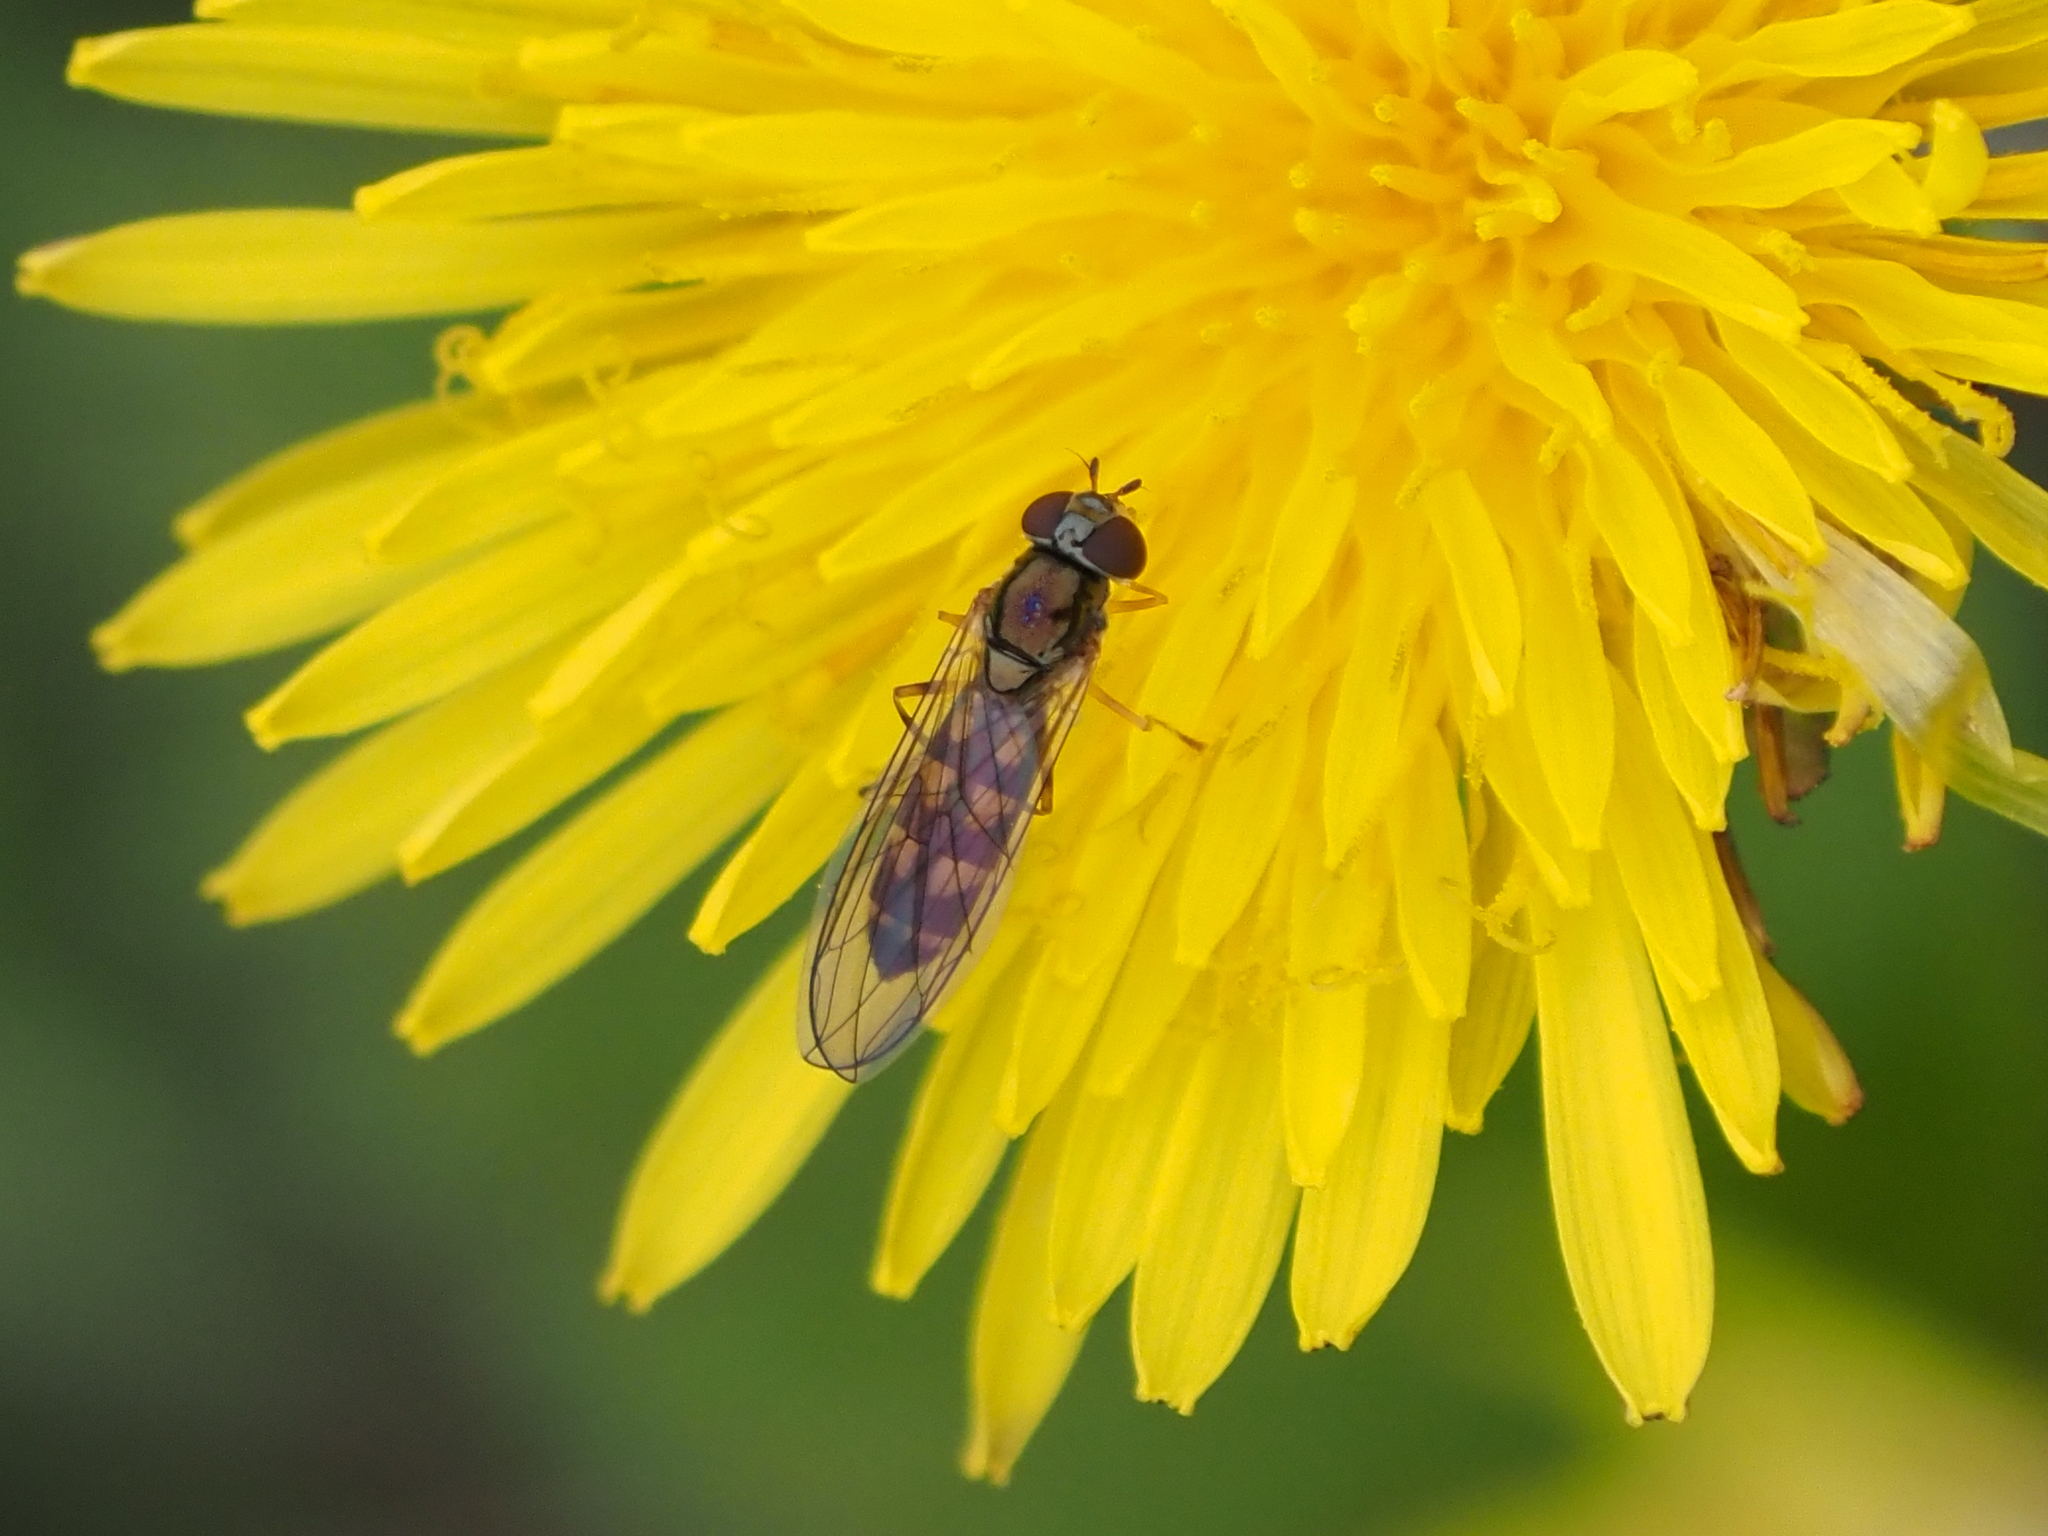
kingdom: Animalia
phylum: Arthropoda
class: Insecta
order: Diptera
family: Syrphidae
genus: Melanostoma
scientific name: Melanostoma mellina
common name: Hover fly
